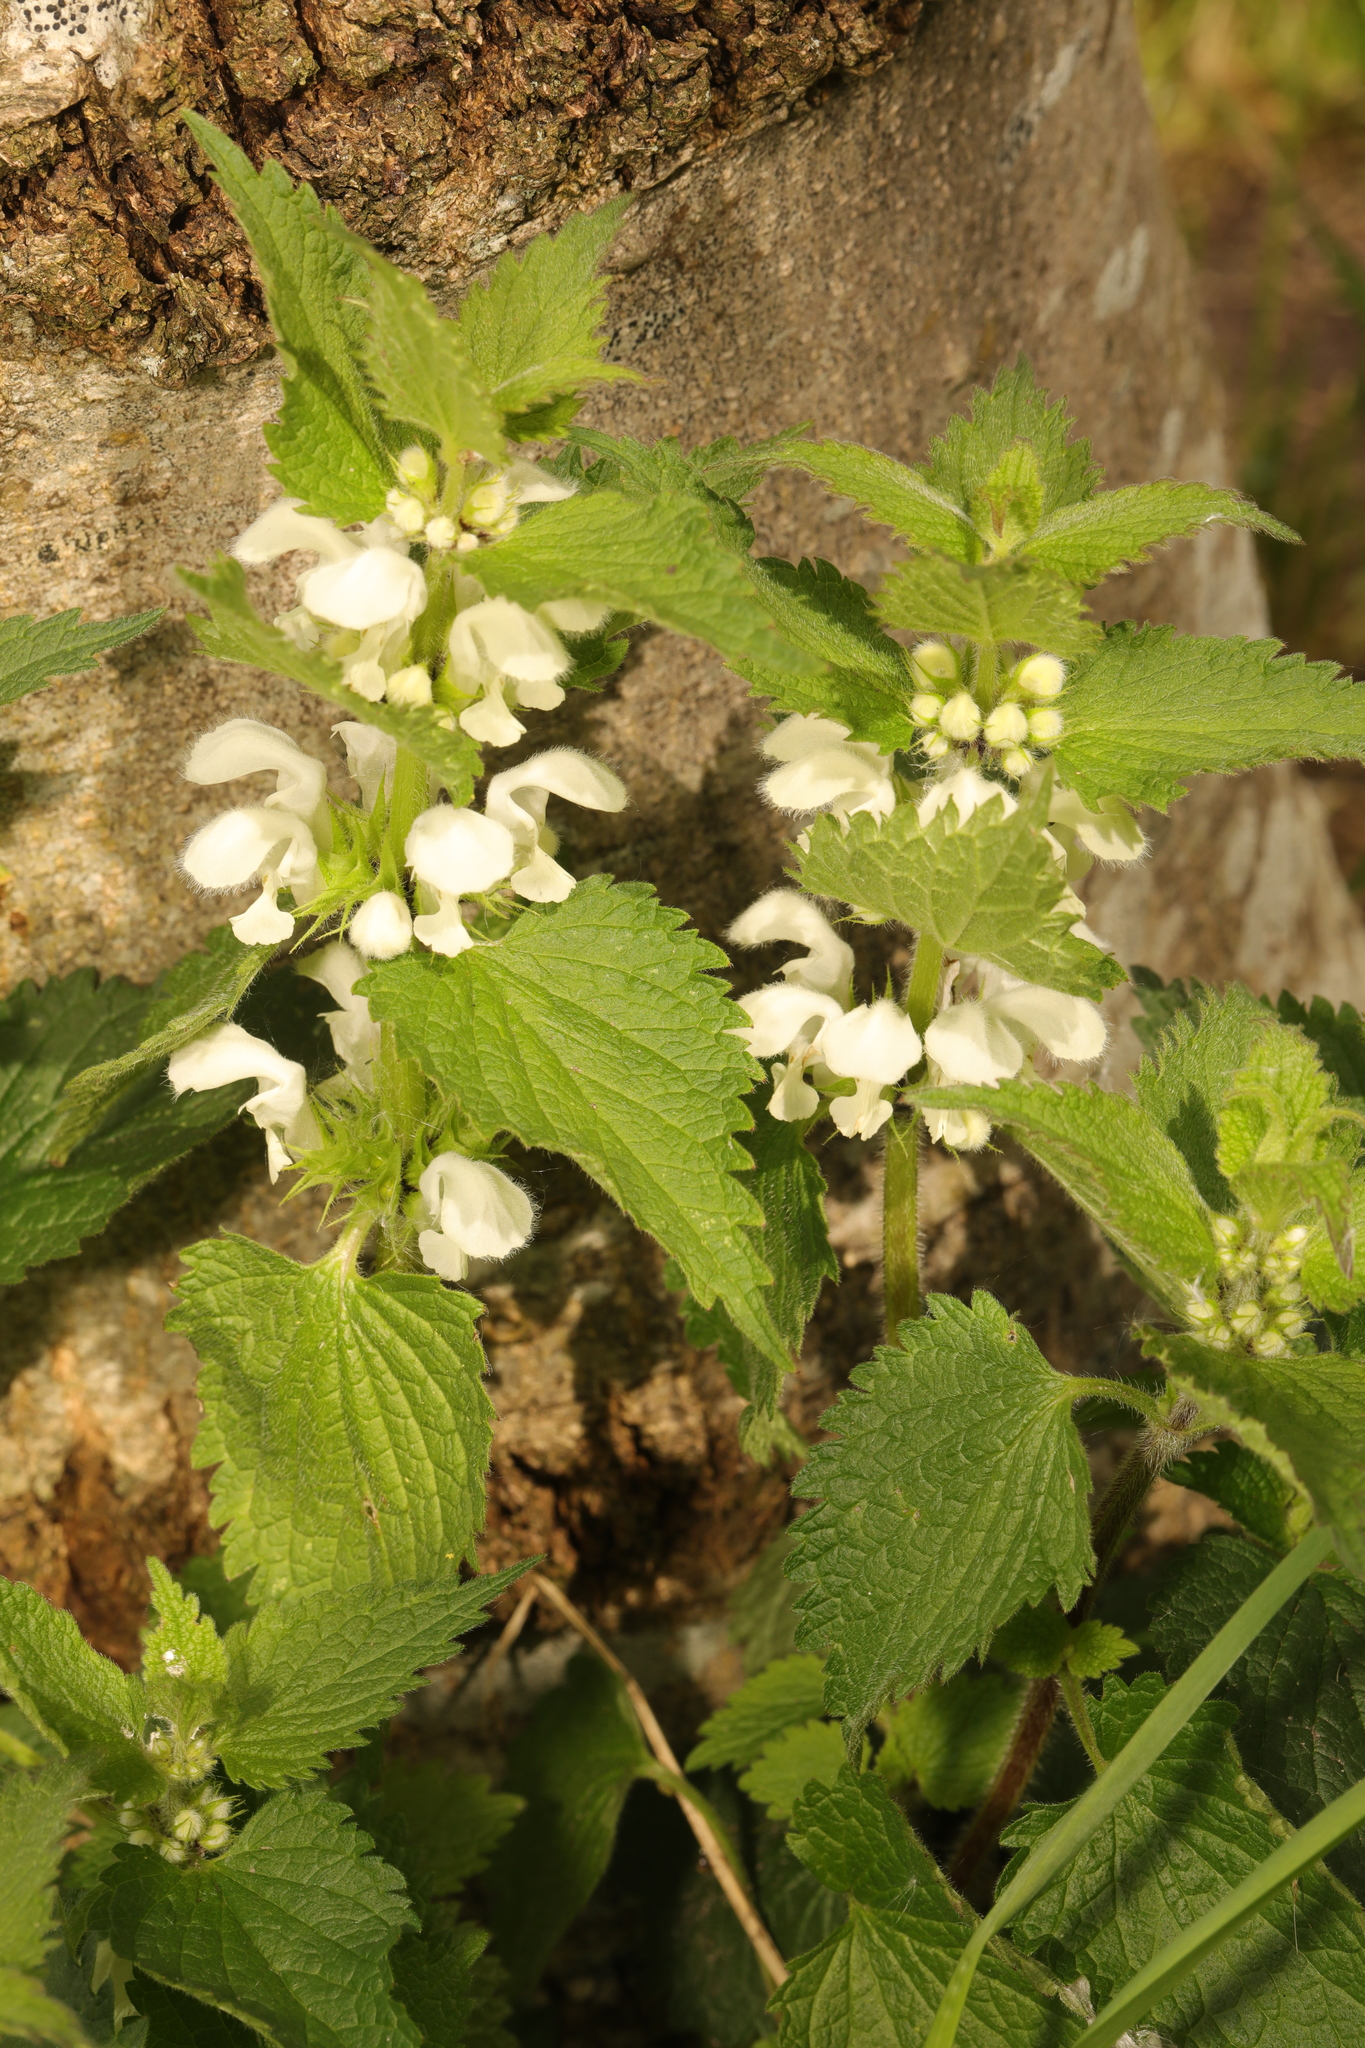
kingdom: Plantae
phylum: Tracheophyta
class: Magnoliopsida
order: Lamiales
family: Lamiaceae
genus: Lamium
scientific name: Lamium album
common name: White dead-nettle
